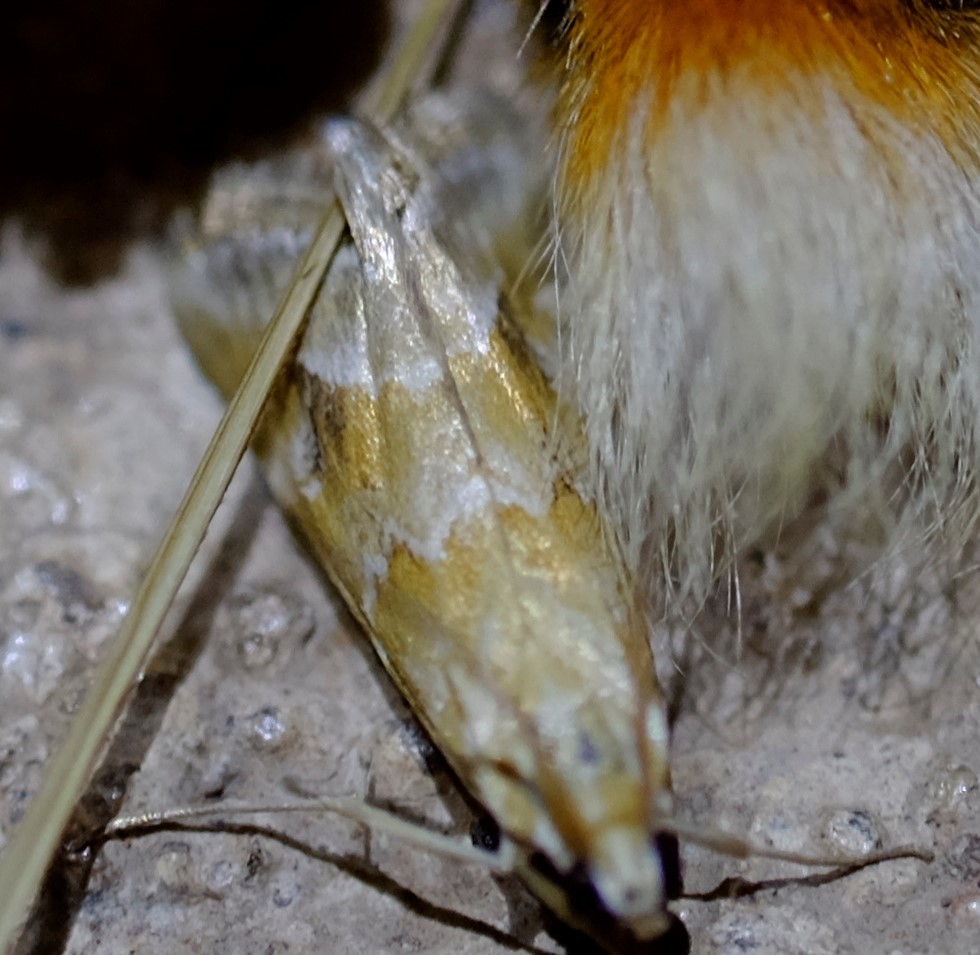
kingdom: Animalia
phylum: Arthropoda
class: Insecta
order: Lepidoptera
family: Crambidae
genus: Hellula
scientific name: Hellula hydralis
